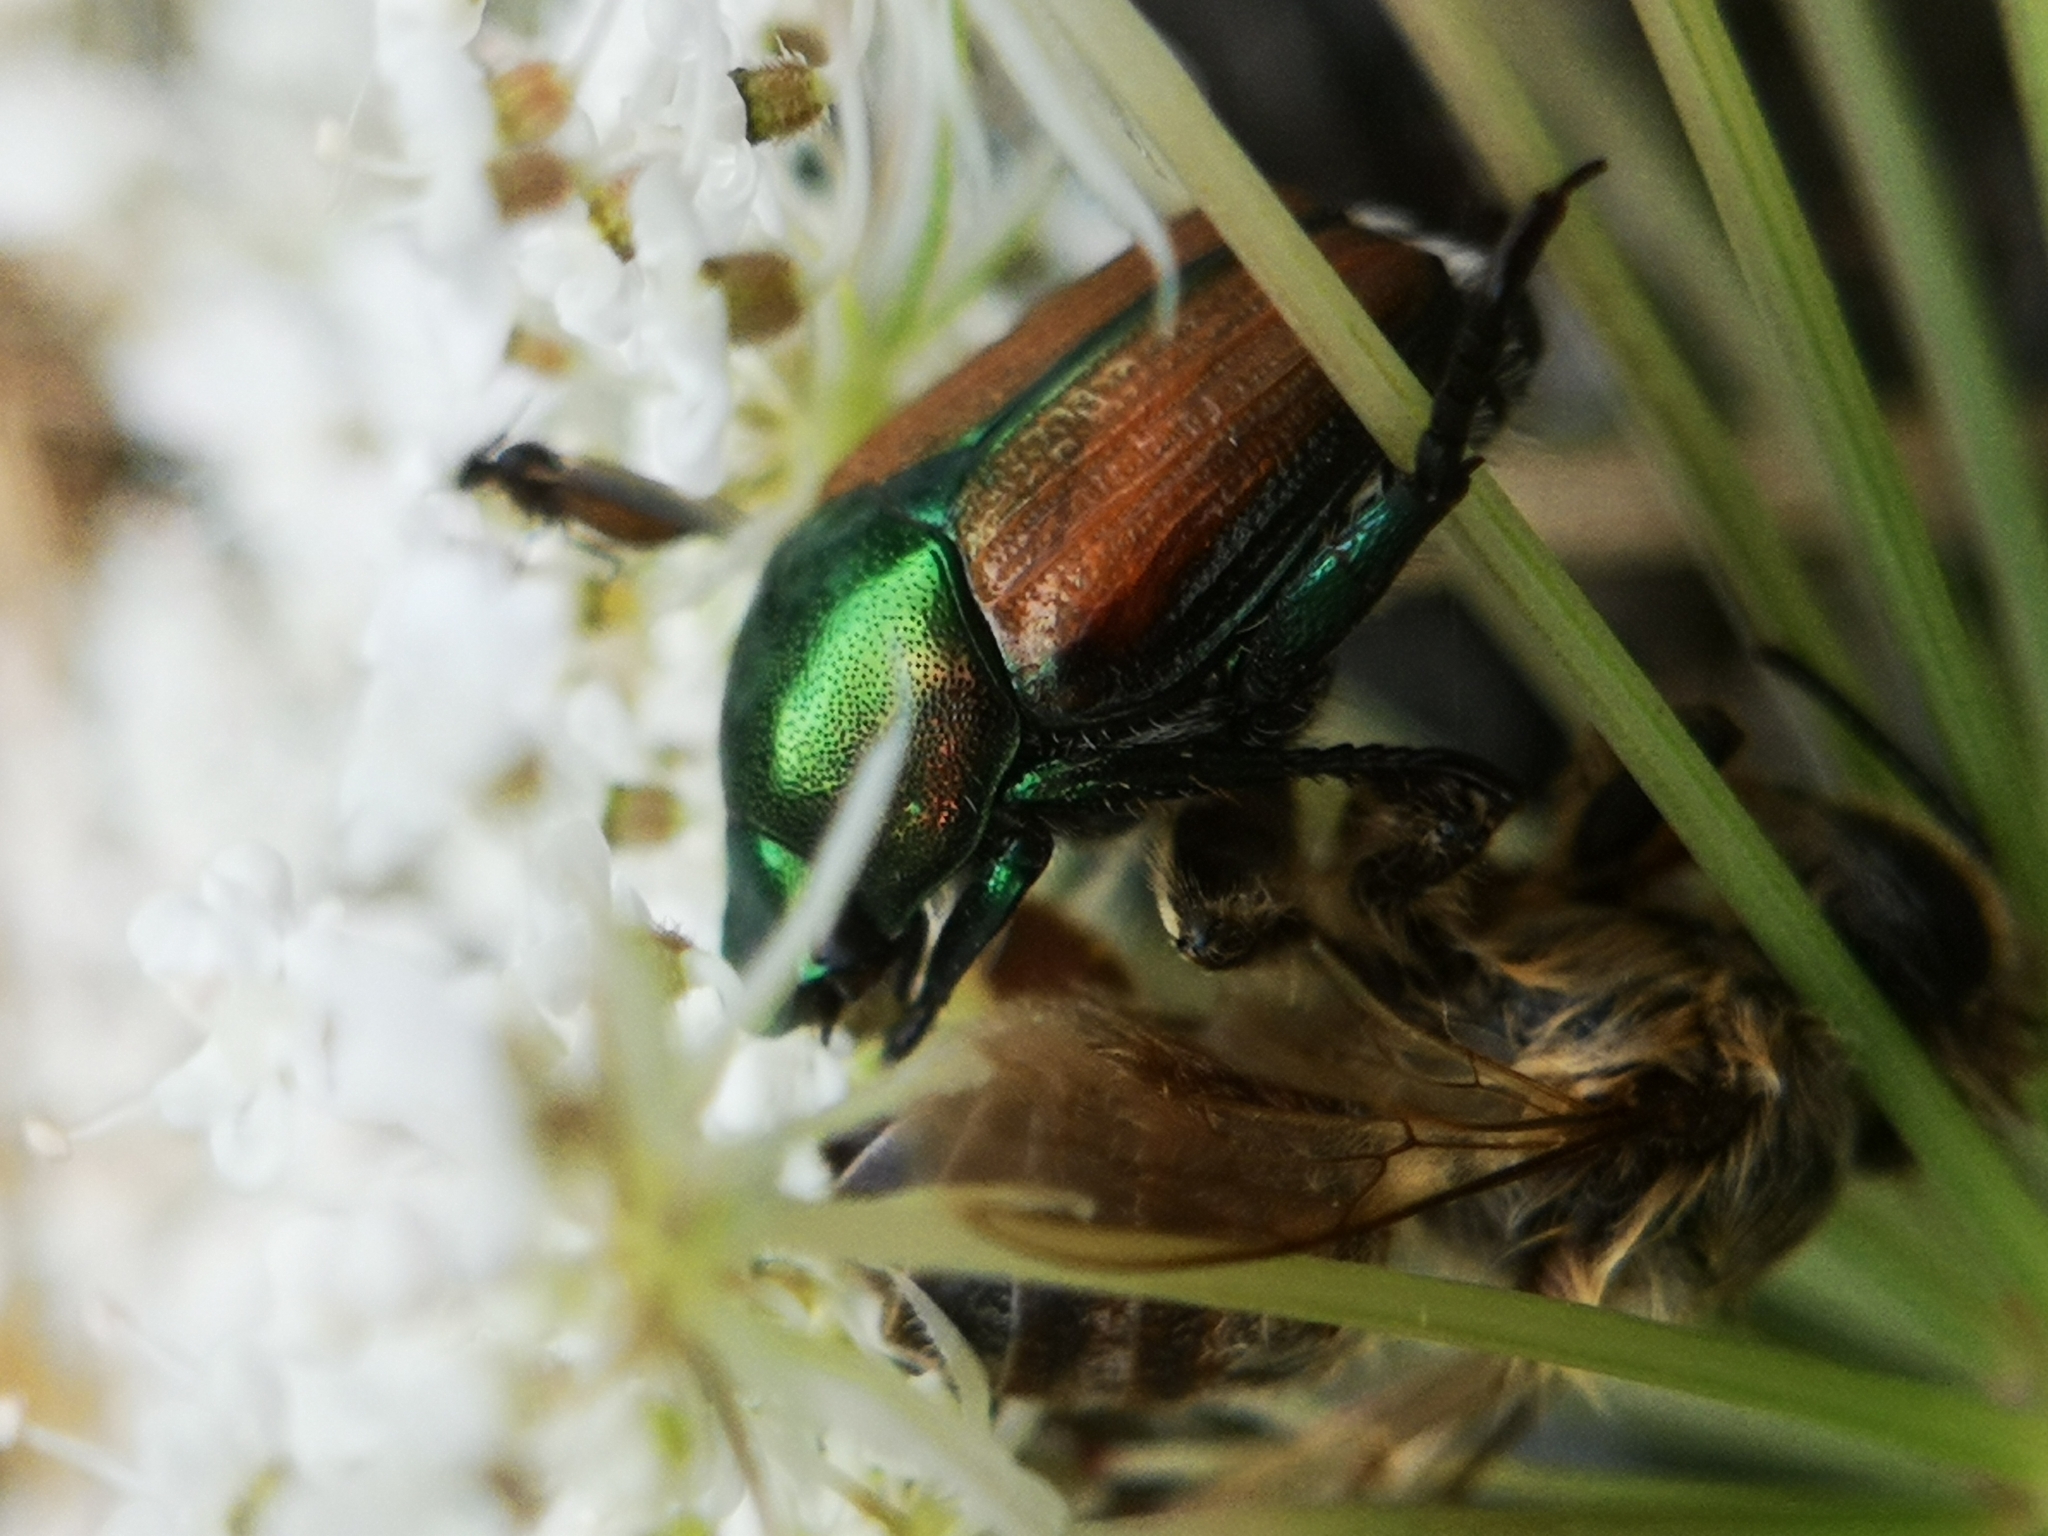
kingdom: Animalia
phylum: Arthropoda
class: Insecta
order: Coleoptera
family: Scarabaeidae
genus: Popillia
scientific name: Popillia japonica
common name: Japanese beetle
